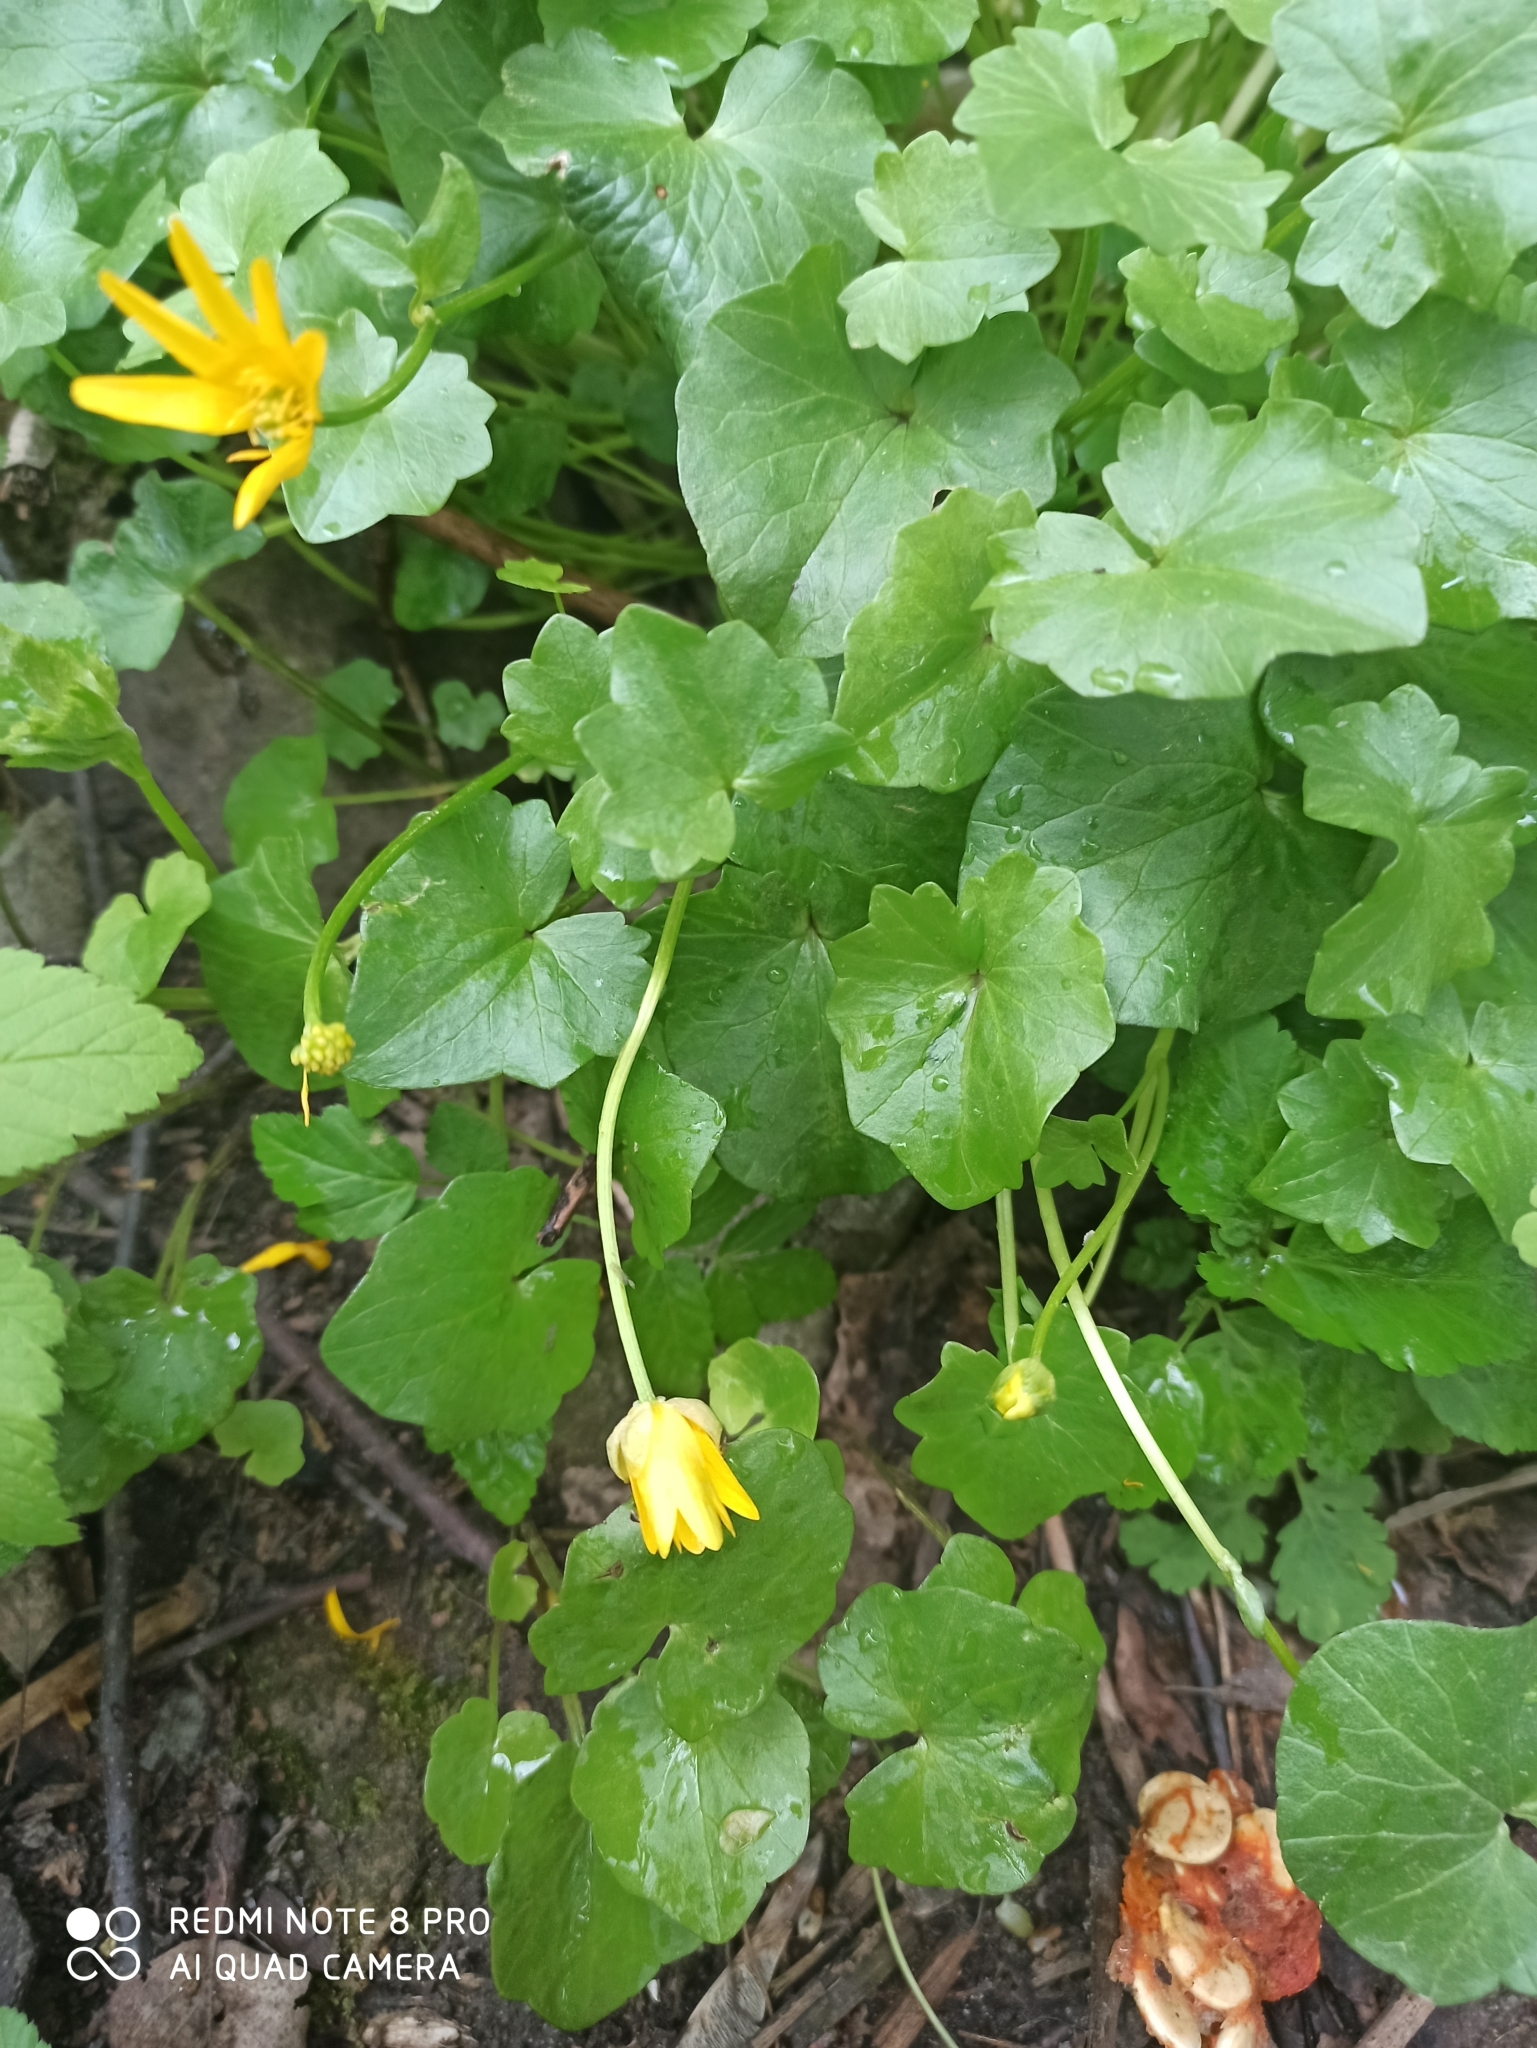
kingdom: Plantae
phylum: Tracheophyta
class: Magnoliopsida
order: Ranunculales
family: Ranunculaceae
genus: Ficaria
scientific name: Ficaria verna
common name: Lesser celandine
